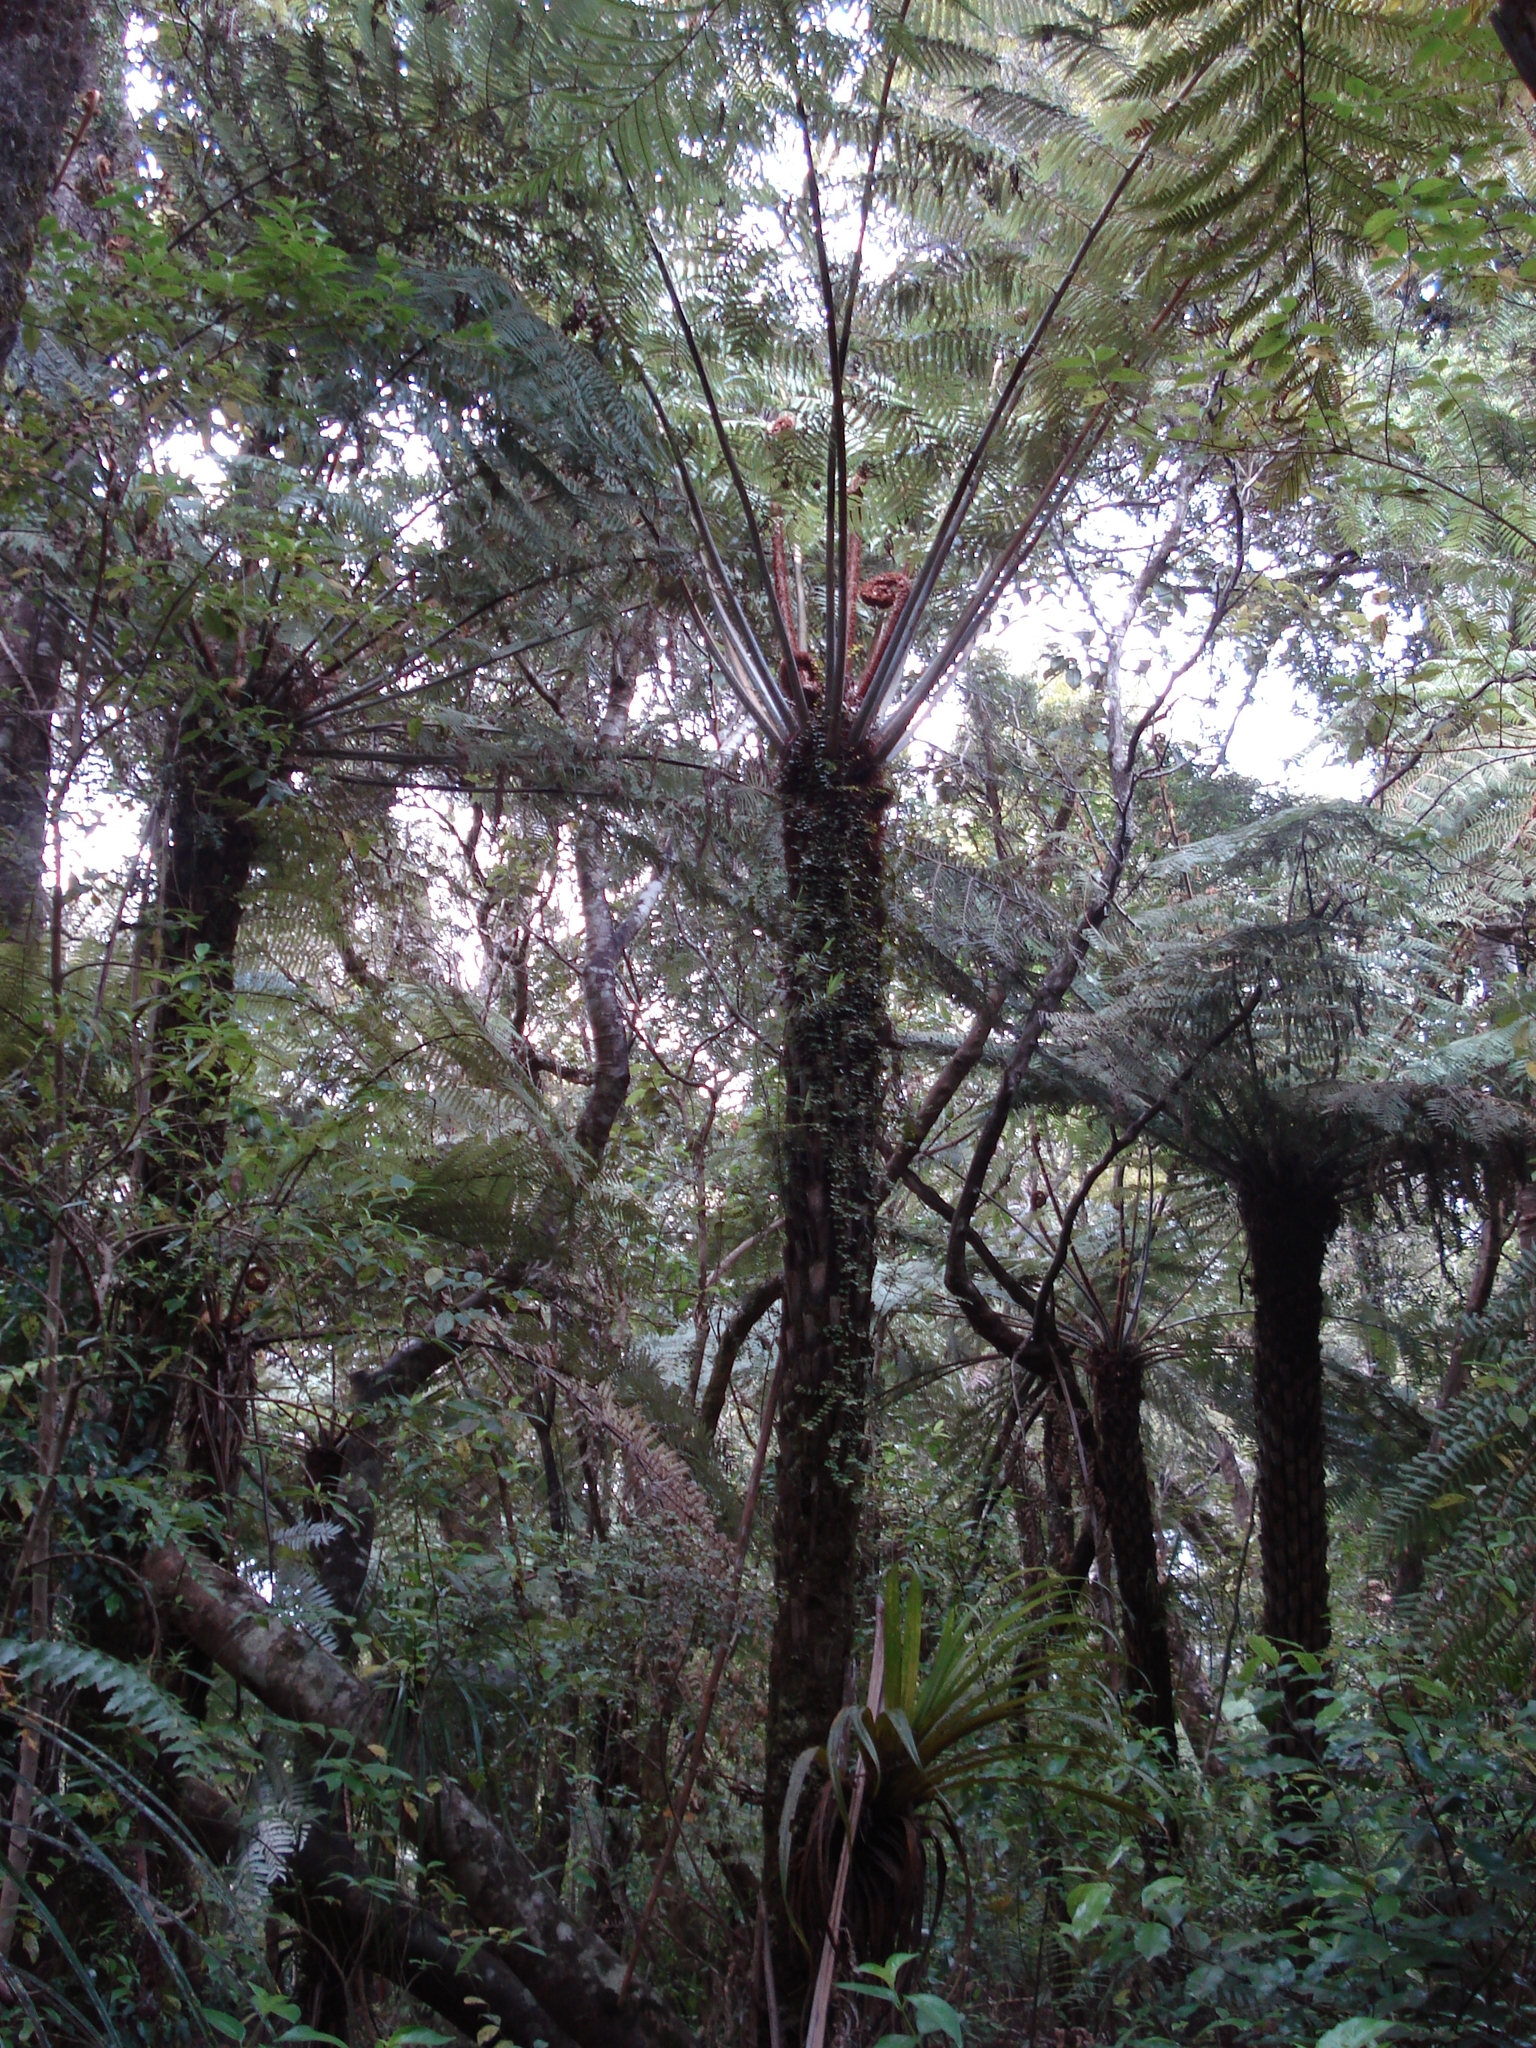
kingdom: Plantae
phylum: Tracheophyta
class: Polypodiopsida
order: Cyatheales
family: Cyatheaceae
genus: Alsophila
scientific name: Alsophila dealbata
